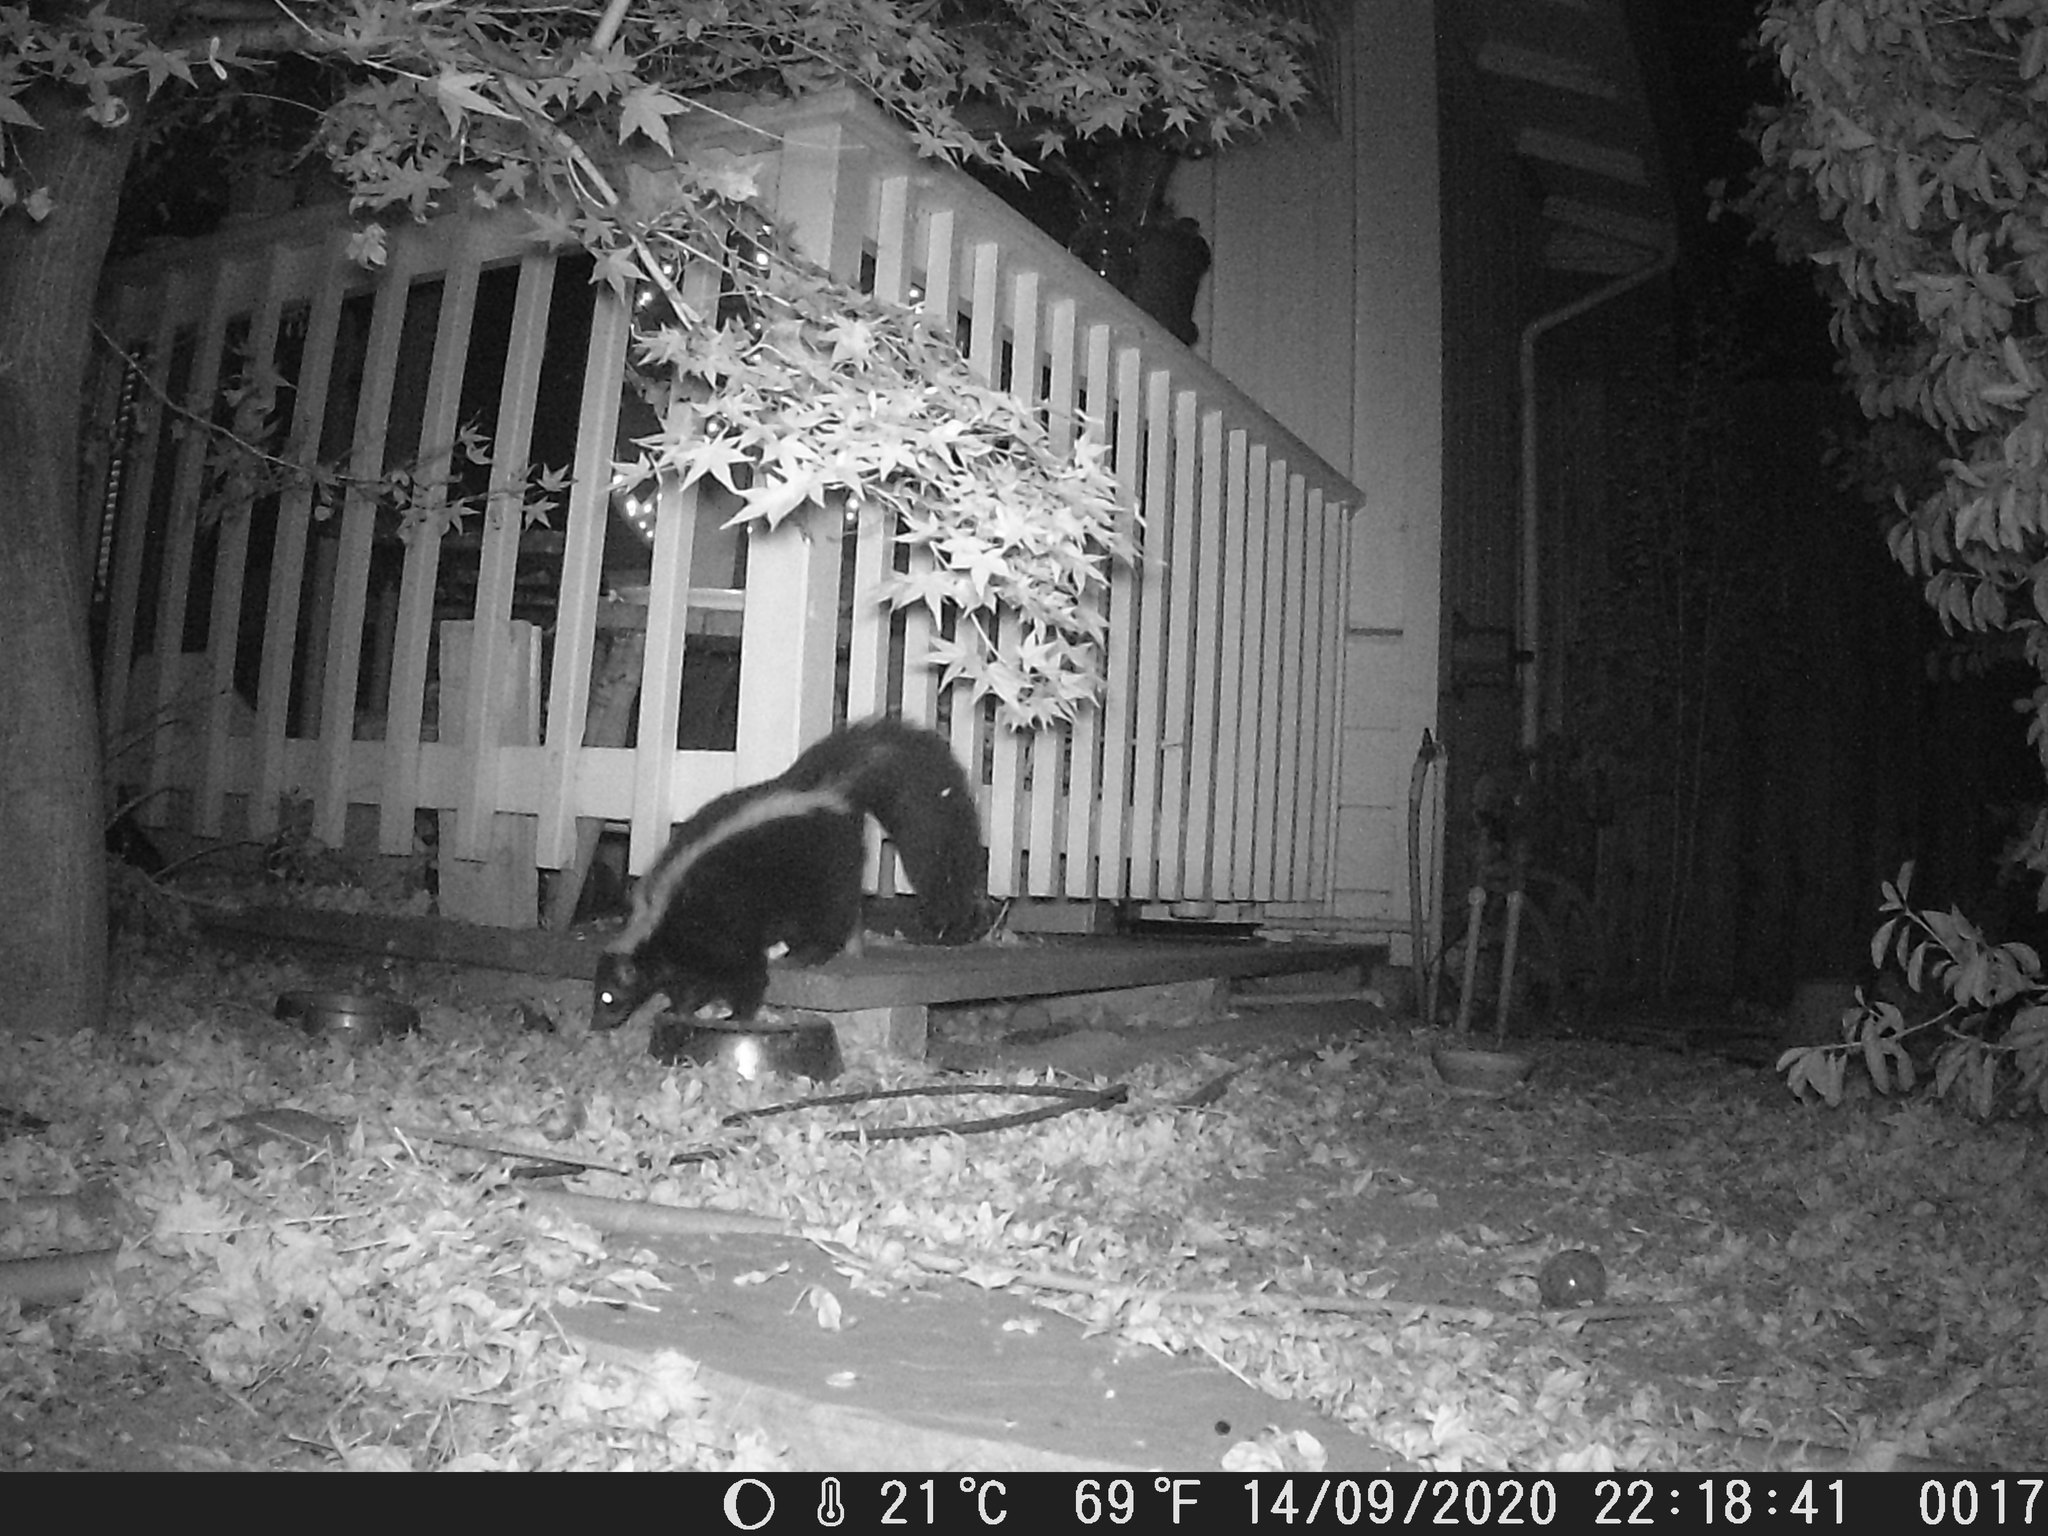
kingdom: Animalia
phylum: Chordata
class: Mammalia
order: Carnivora
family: Mephitidae
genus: Mephitis
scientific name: Mephitis mephitis
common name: Striped skunk
